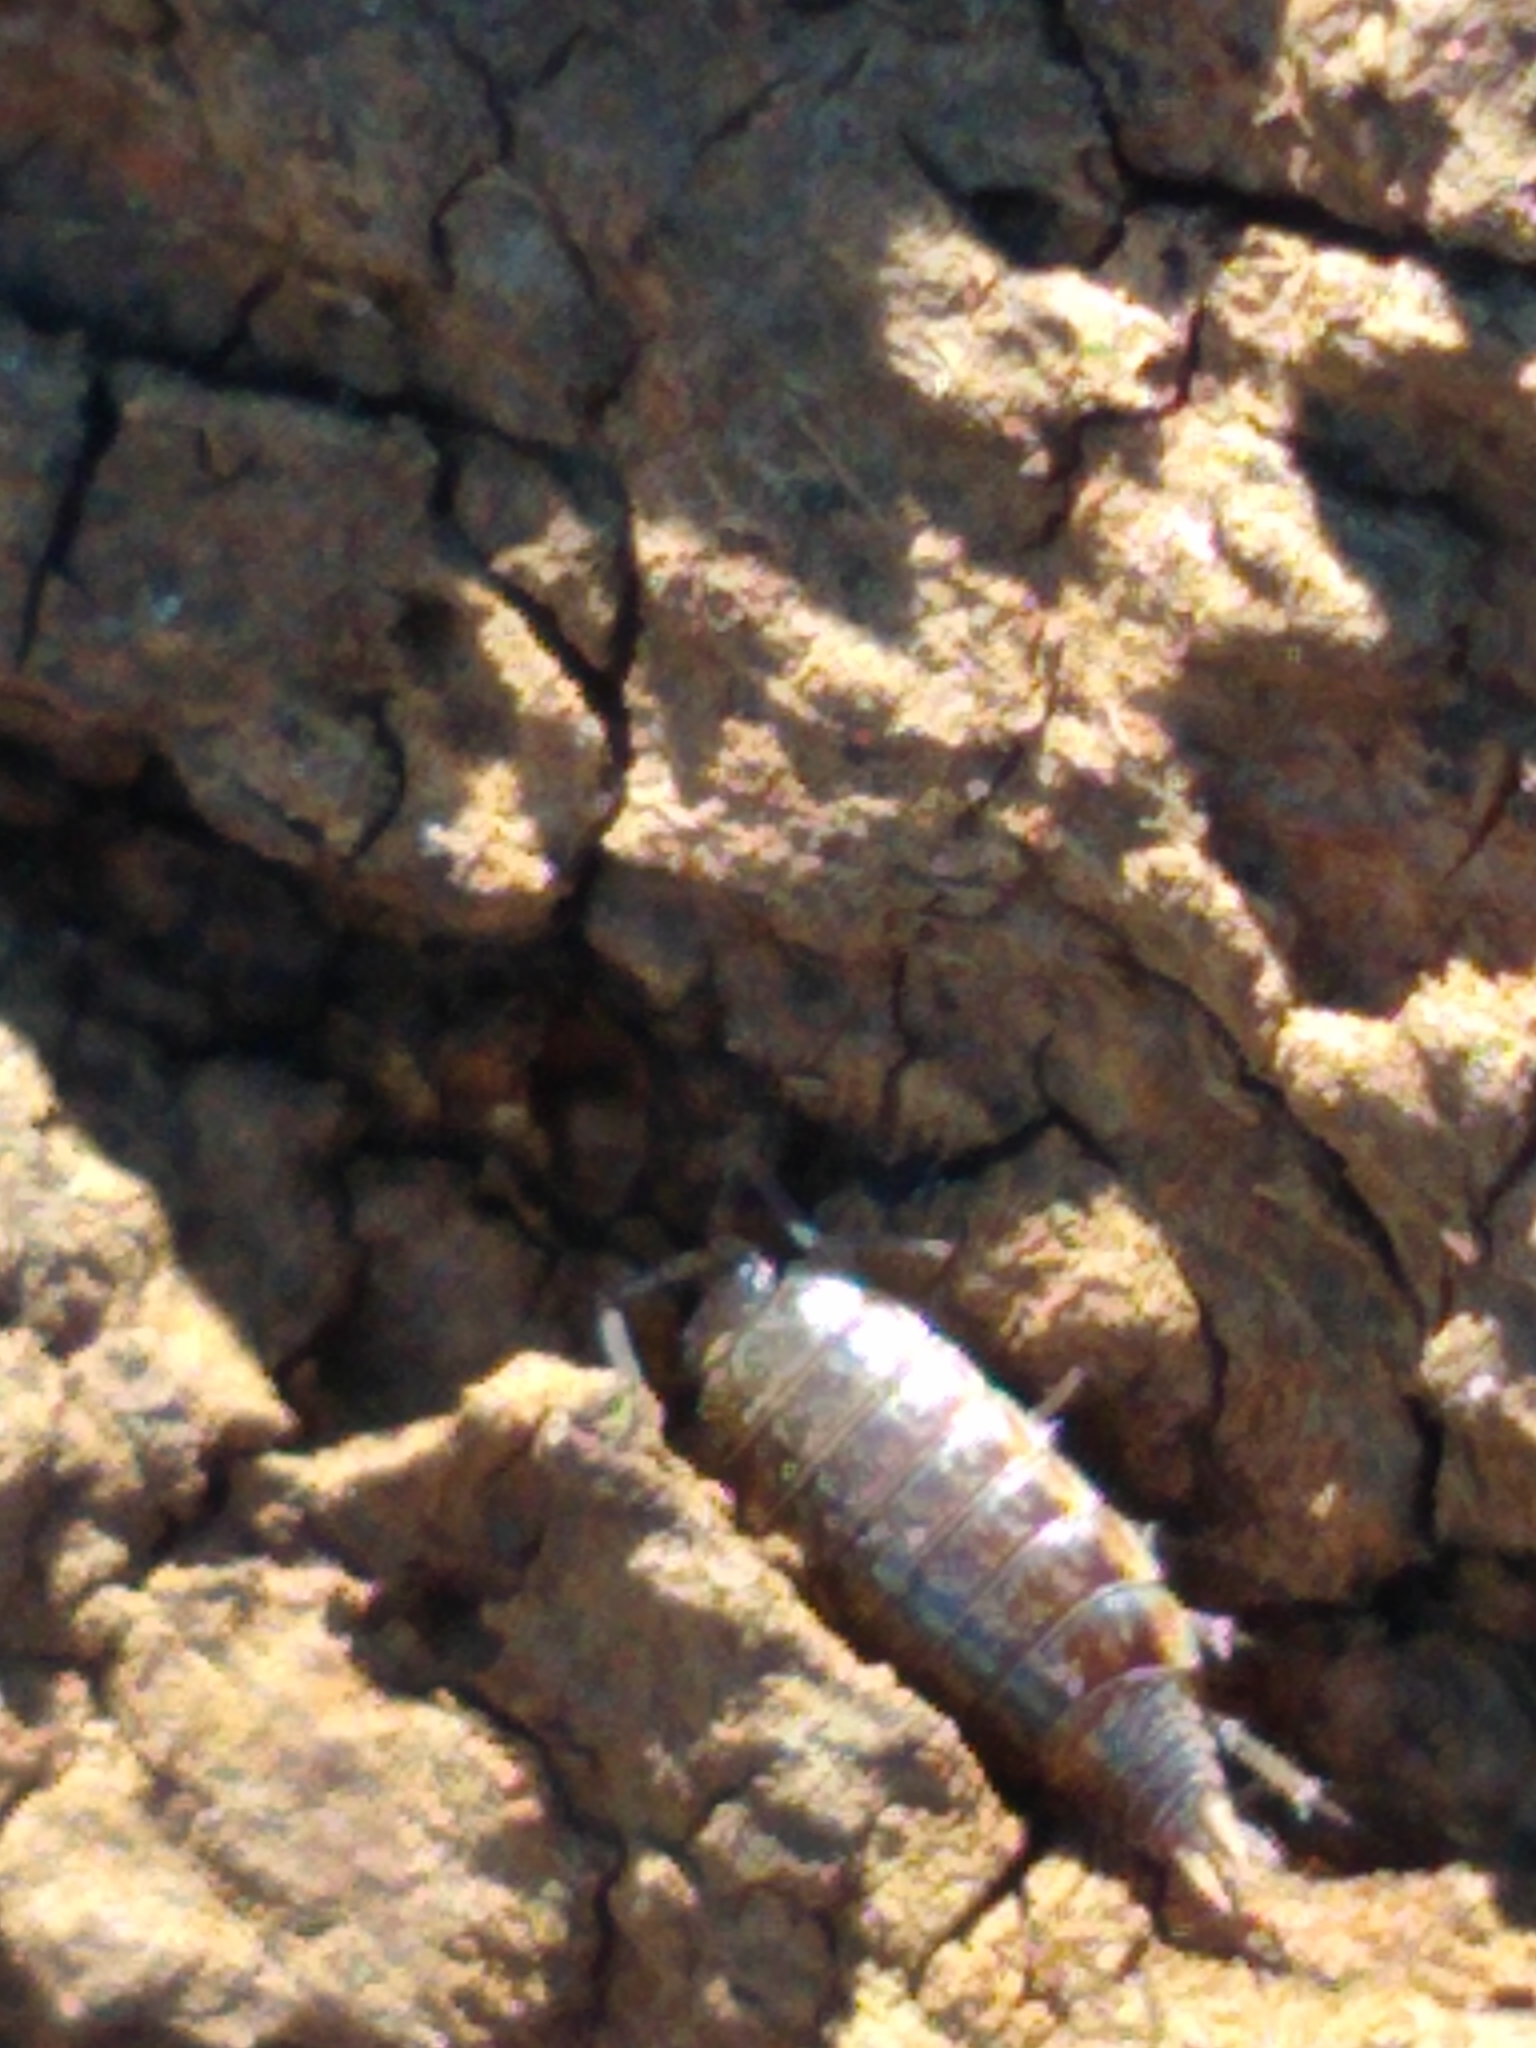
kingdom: Animalia
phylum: Arthropoda
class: Malacostraca
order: Isopoda
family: Philosciidae
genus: Philoscia
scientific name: Philoscia muscorum
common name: Common striped woodlouse
